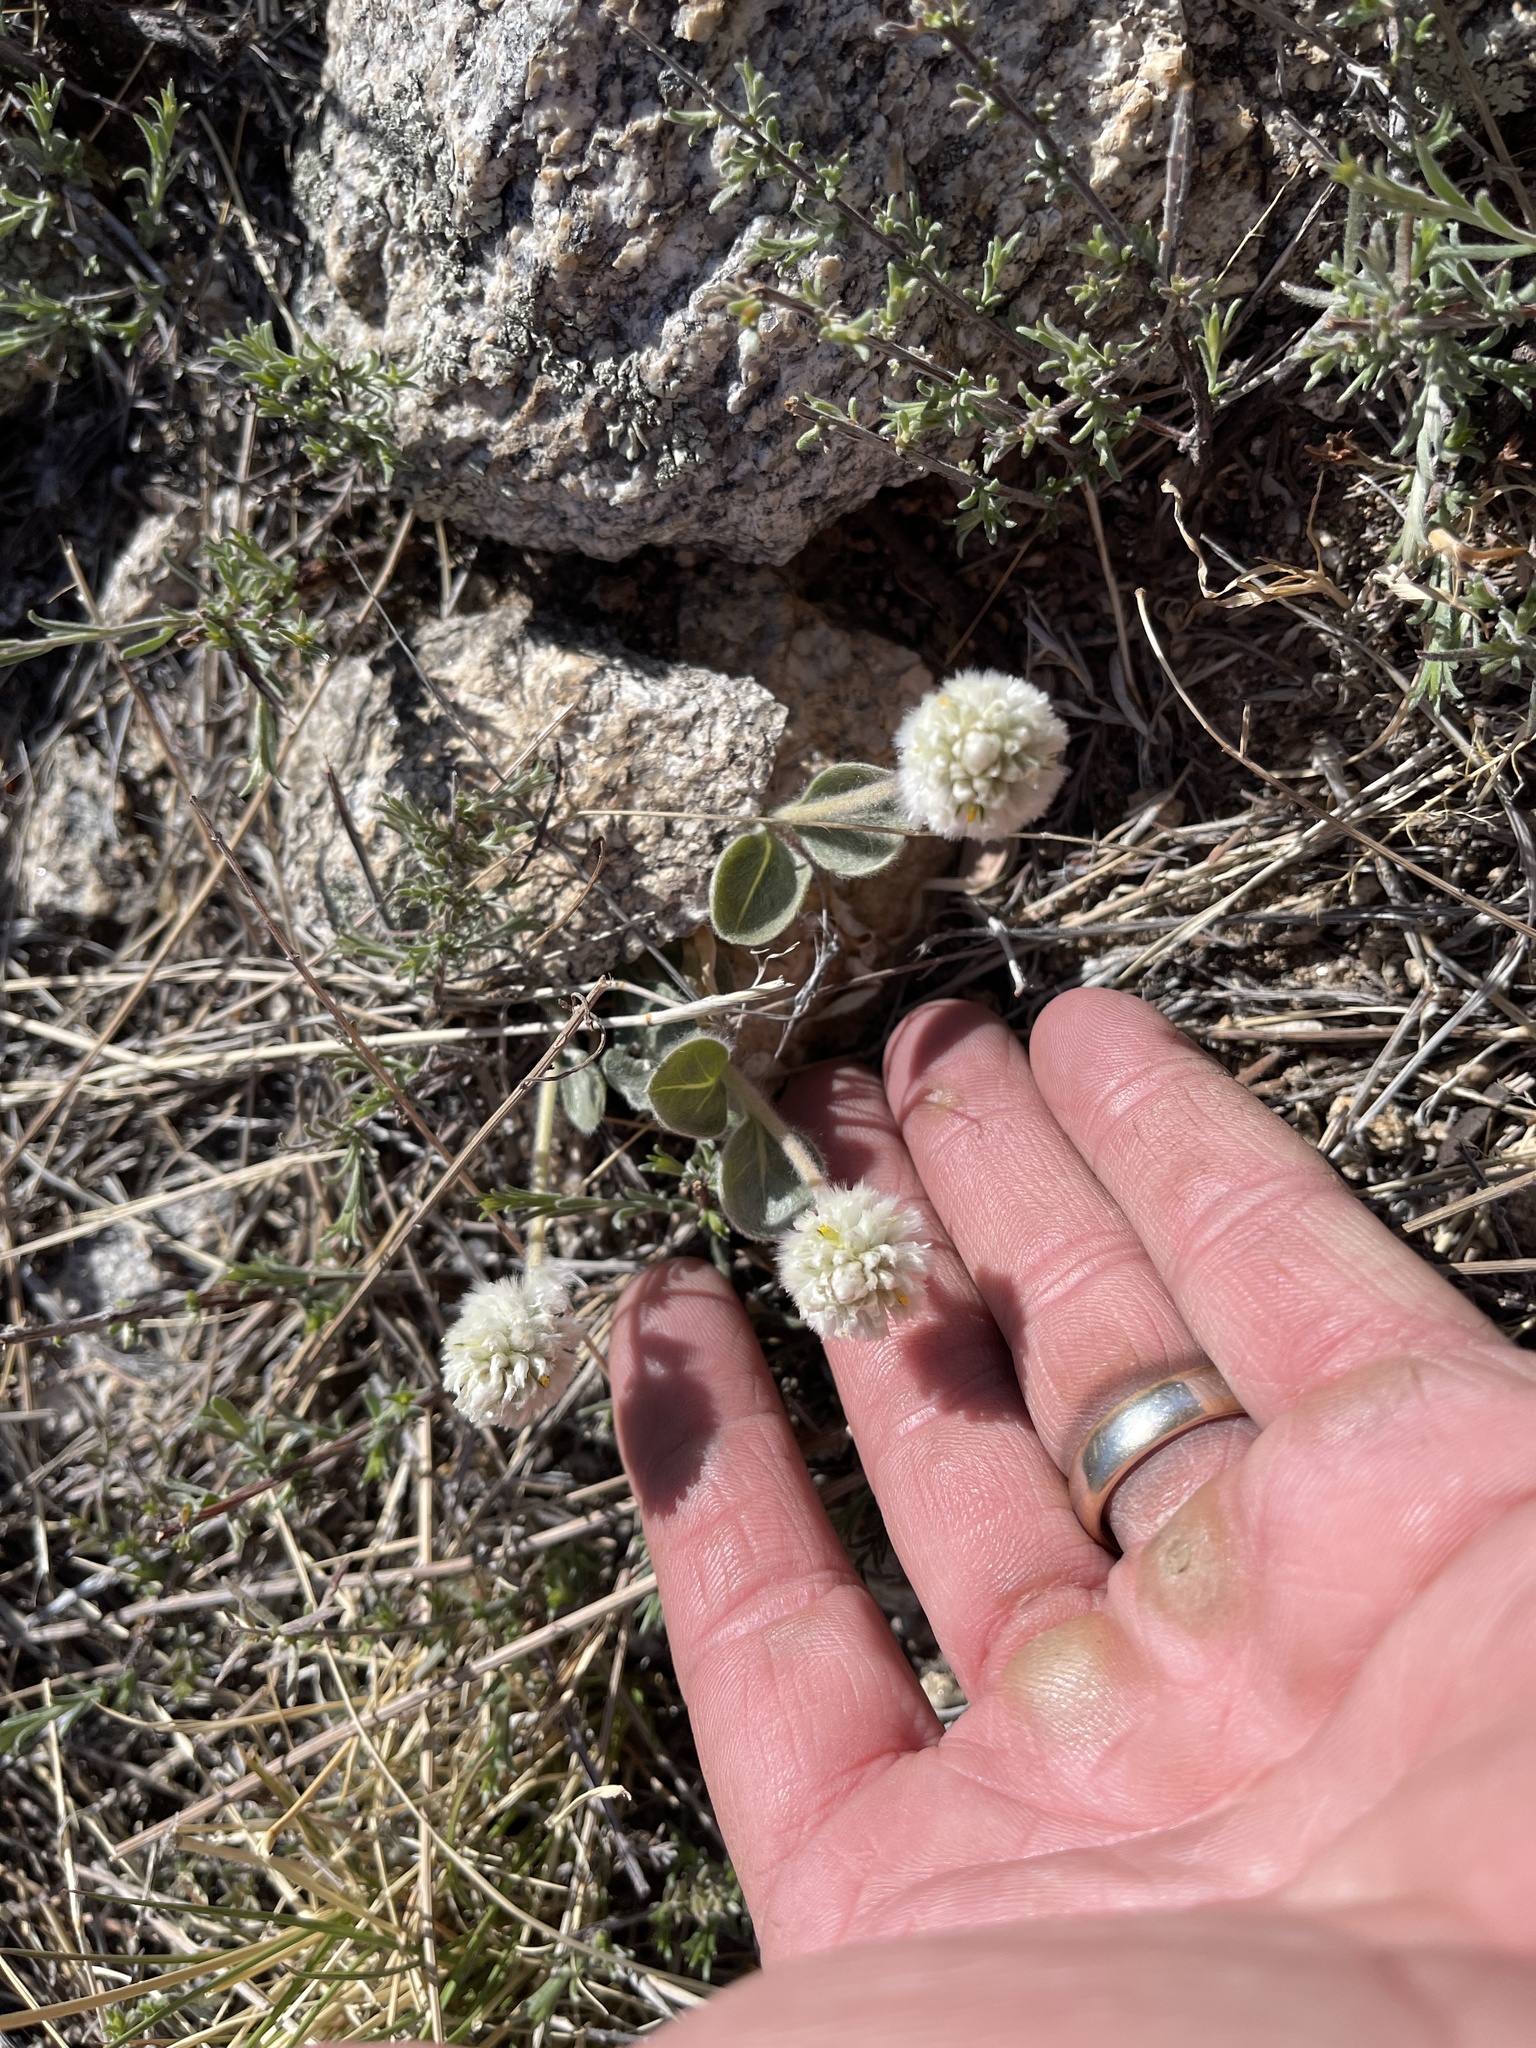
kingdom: Plantae
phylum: Tracheophyta
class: Magnoliopsida
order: Caryophyllales
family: Amaranthaceae
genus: Gomphrena
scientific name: Gomphrena caespitosa
